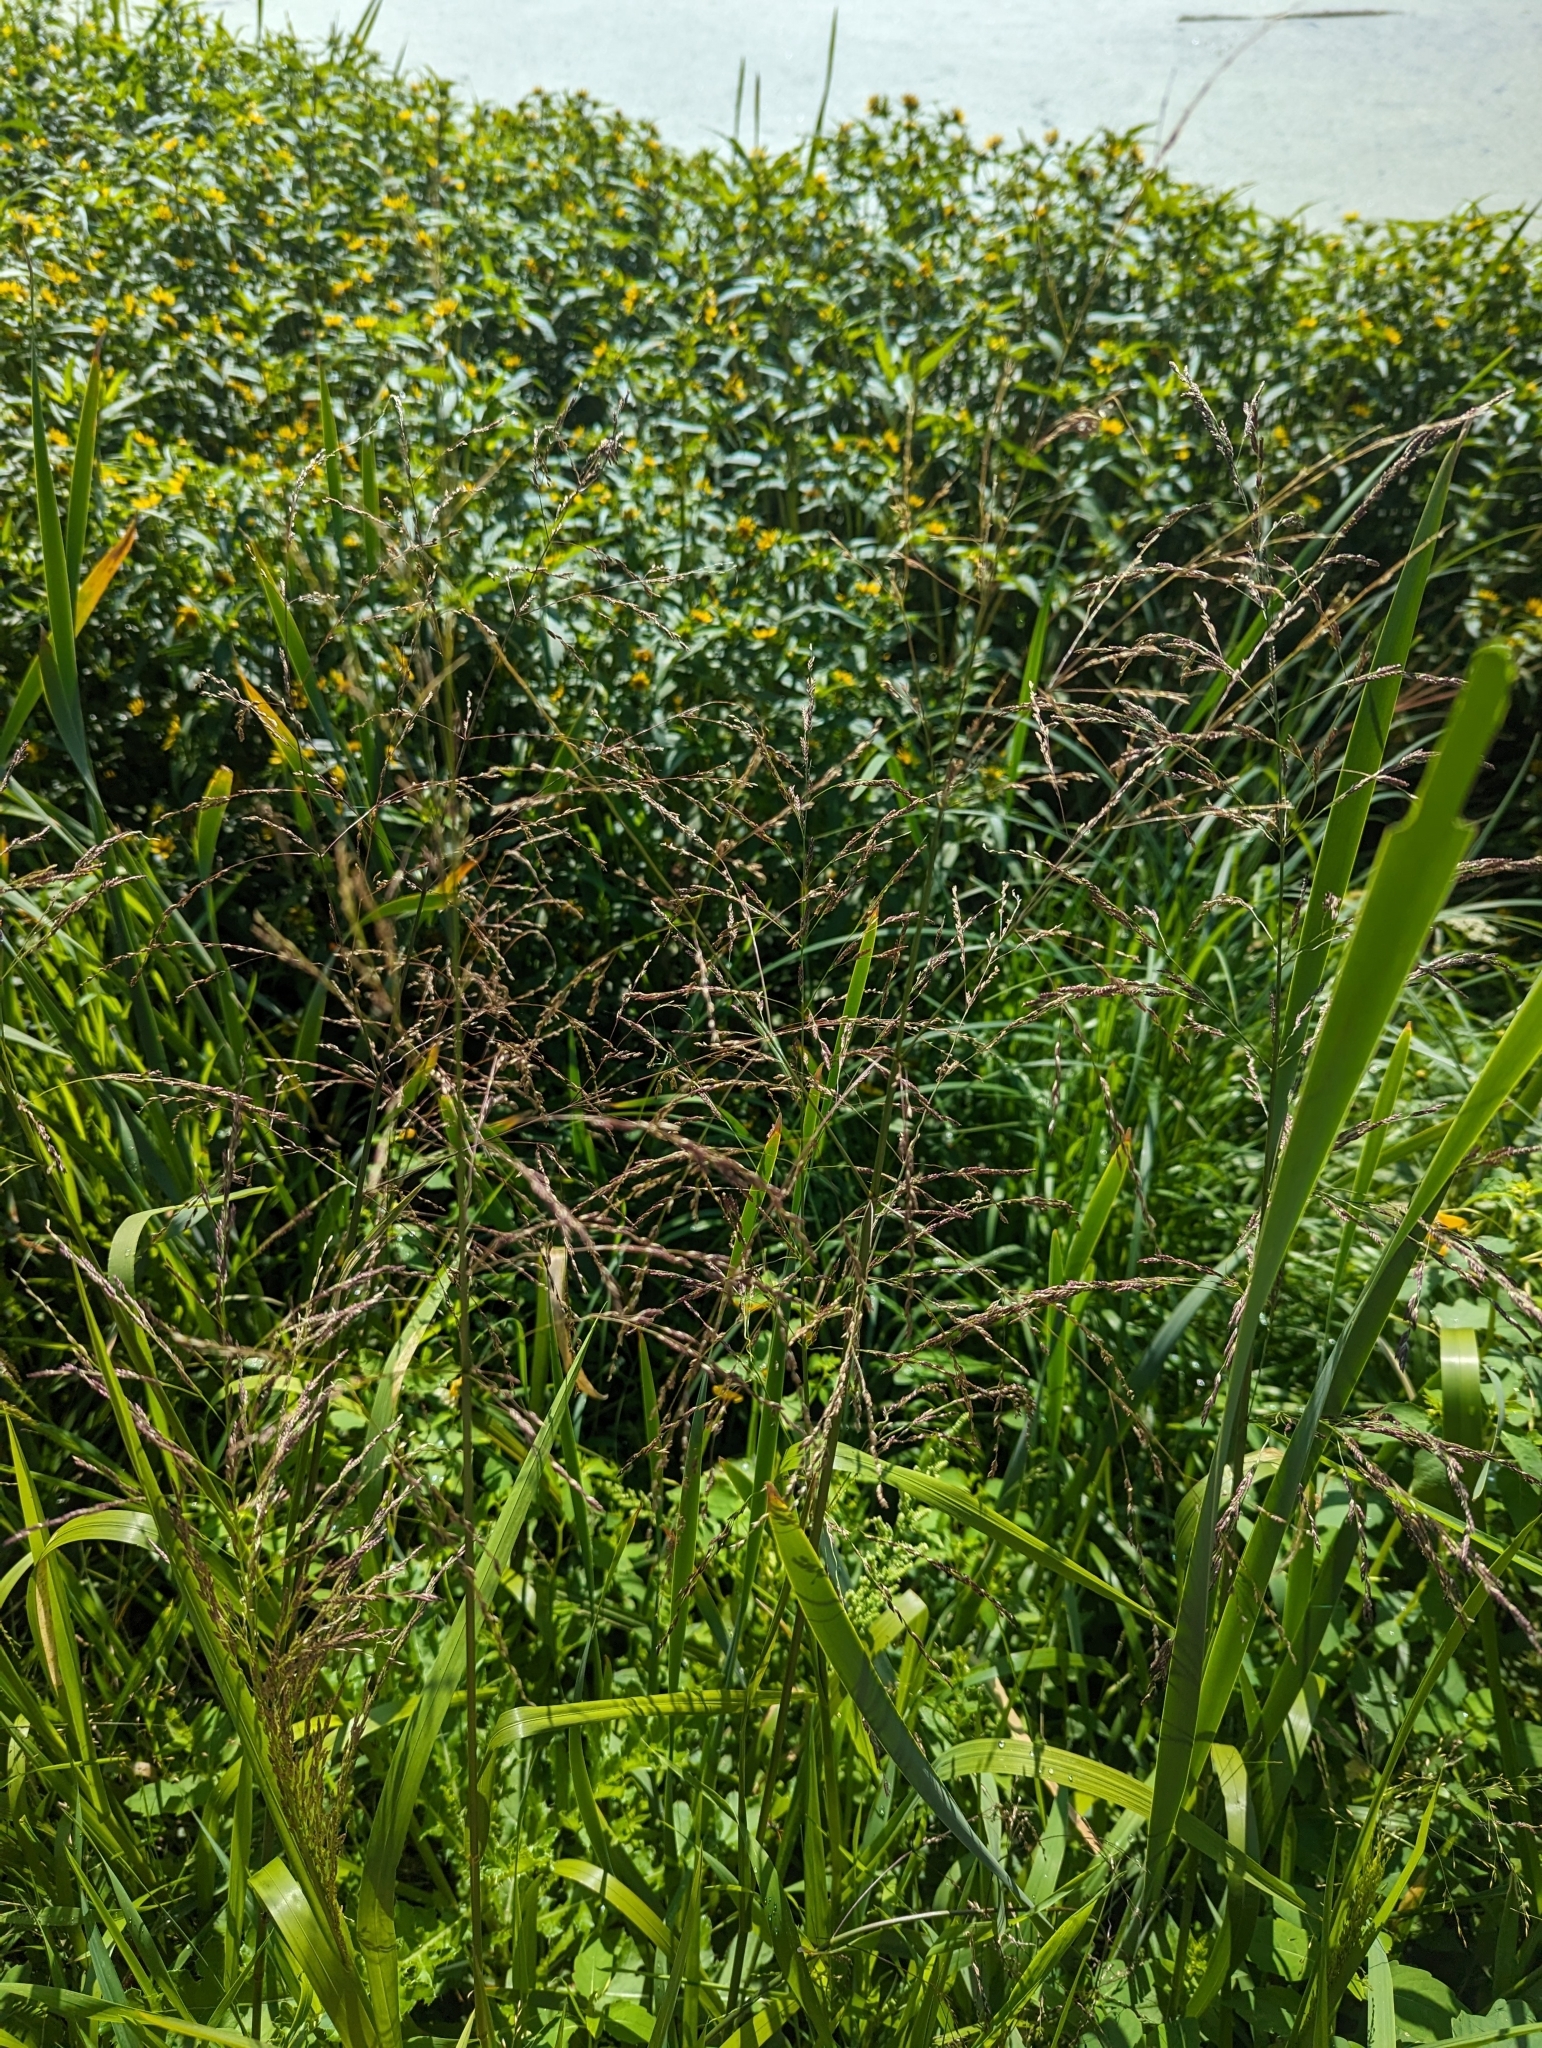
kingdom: Plantae
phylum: Tracheophyta
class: Liliopsida
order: Poales
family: Poaceae
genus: Glyceria
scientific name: Glyceria grandis
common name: American glyceria
